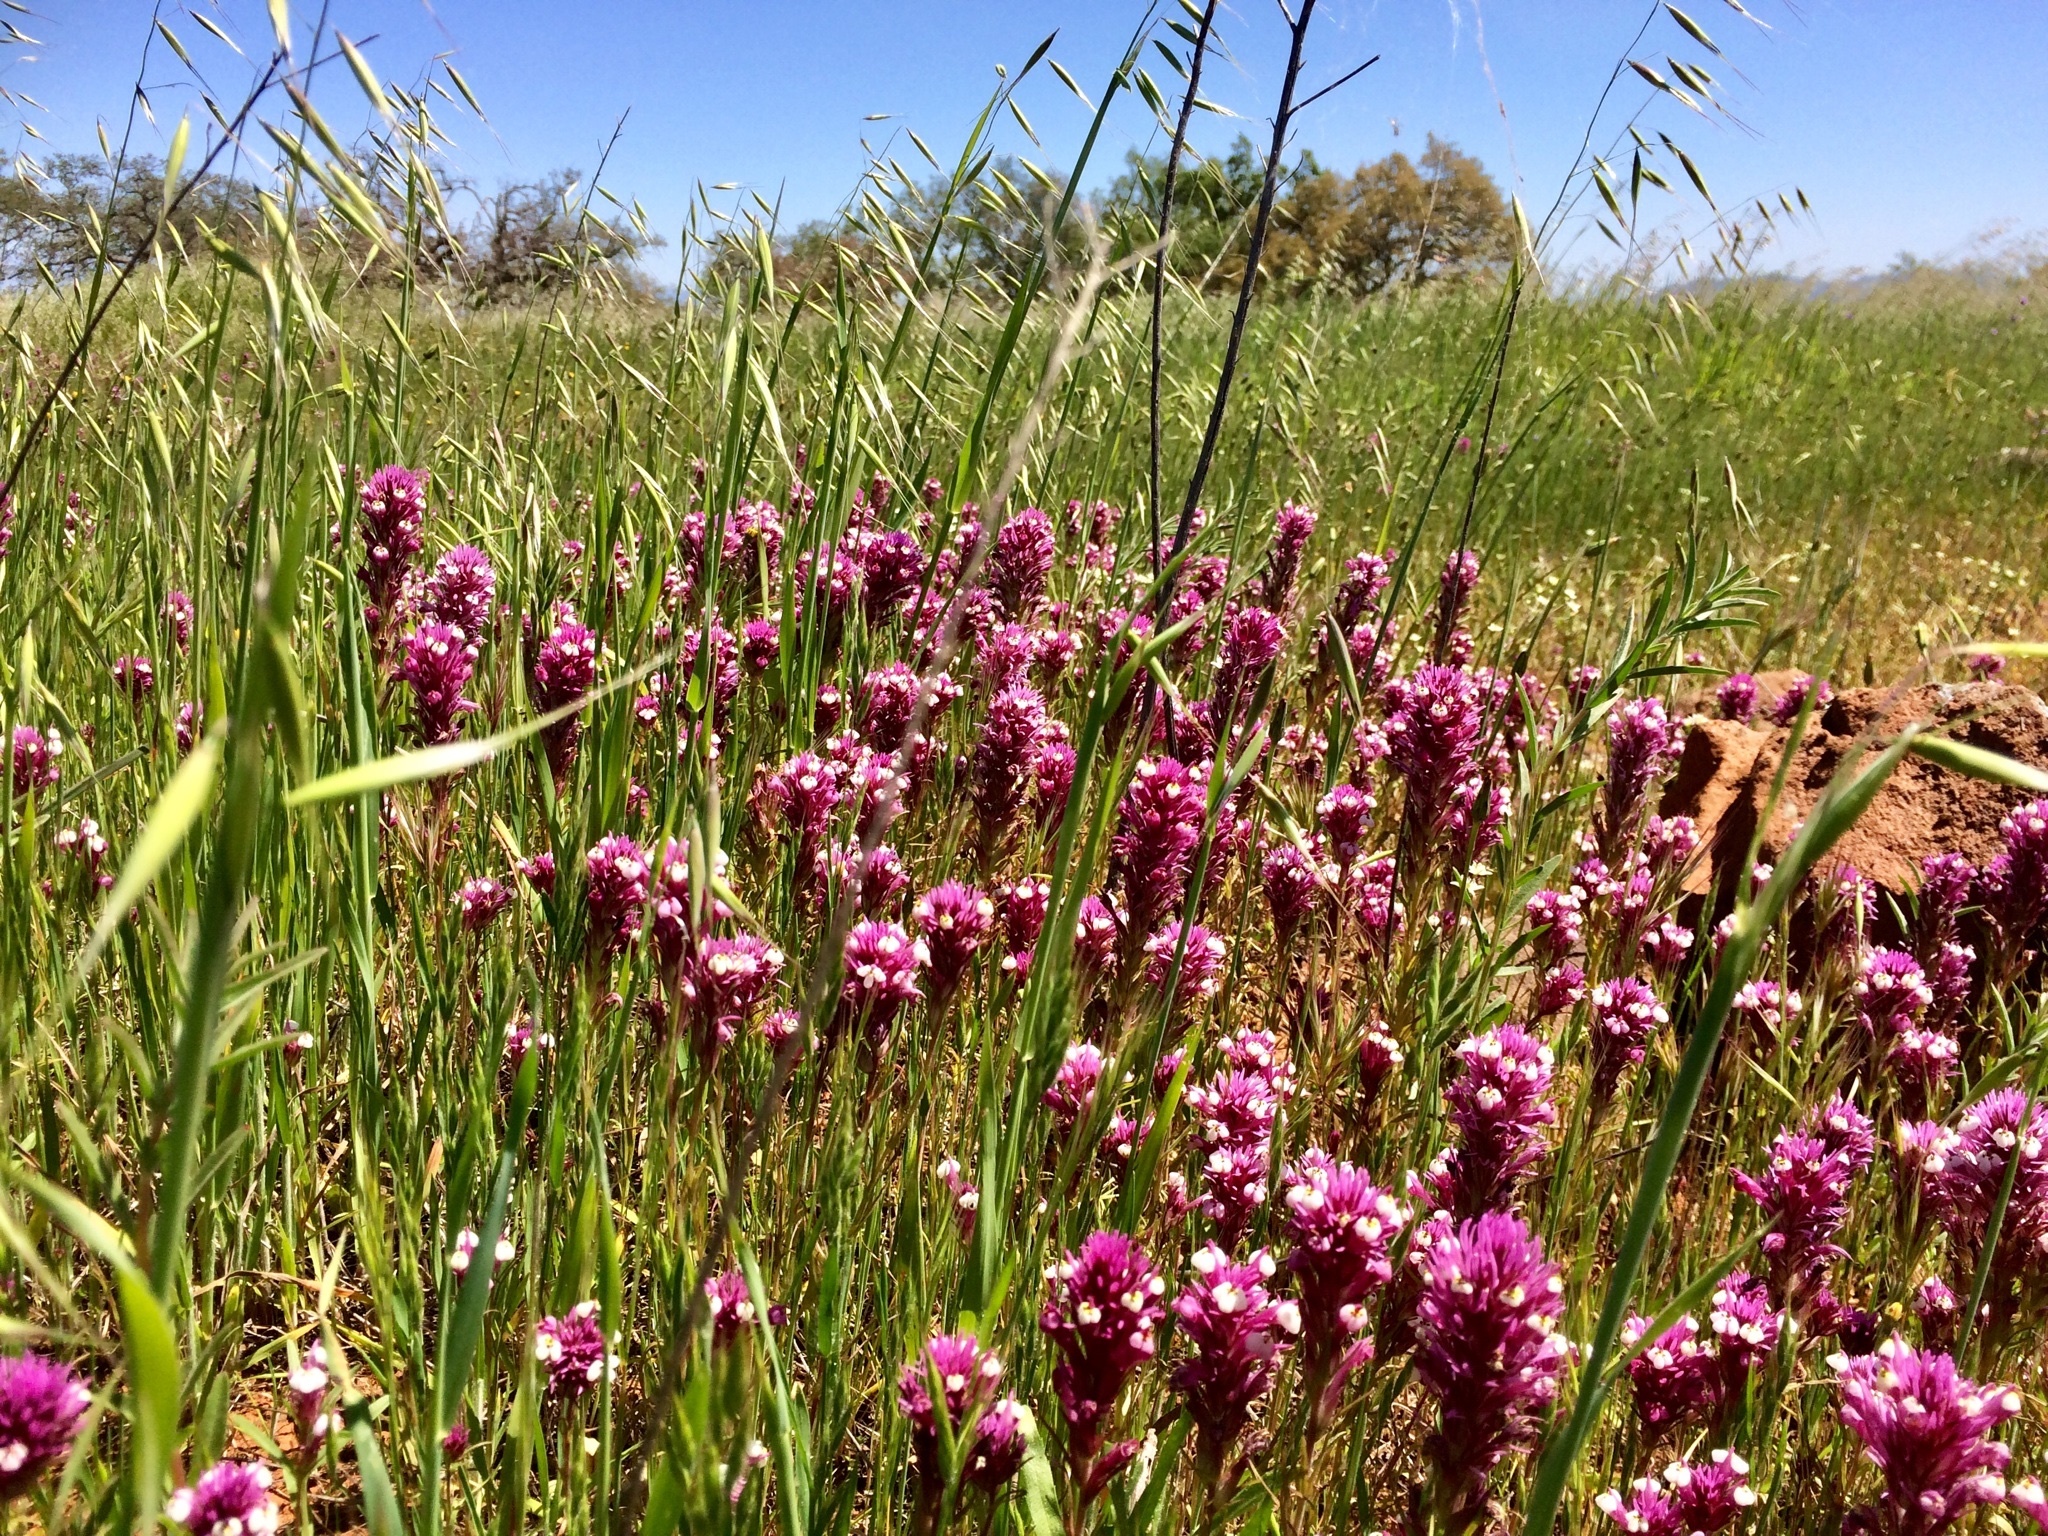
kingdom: Plantae
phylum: Tracheophyta
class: Magnoliopsida
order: Lamiales
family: Orobanchaceae
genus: Castilleja
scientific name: Castilleja exserta
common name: Purple owl-clover
